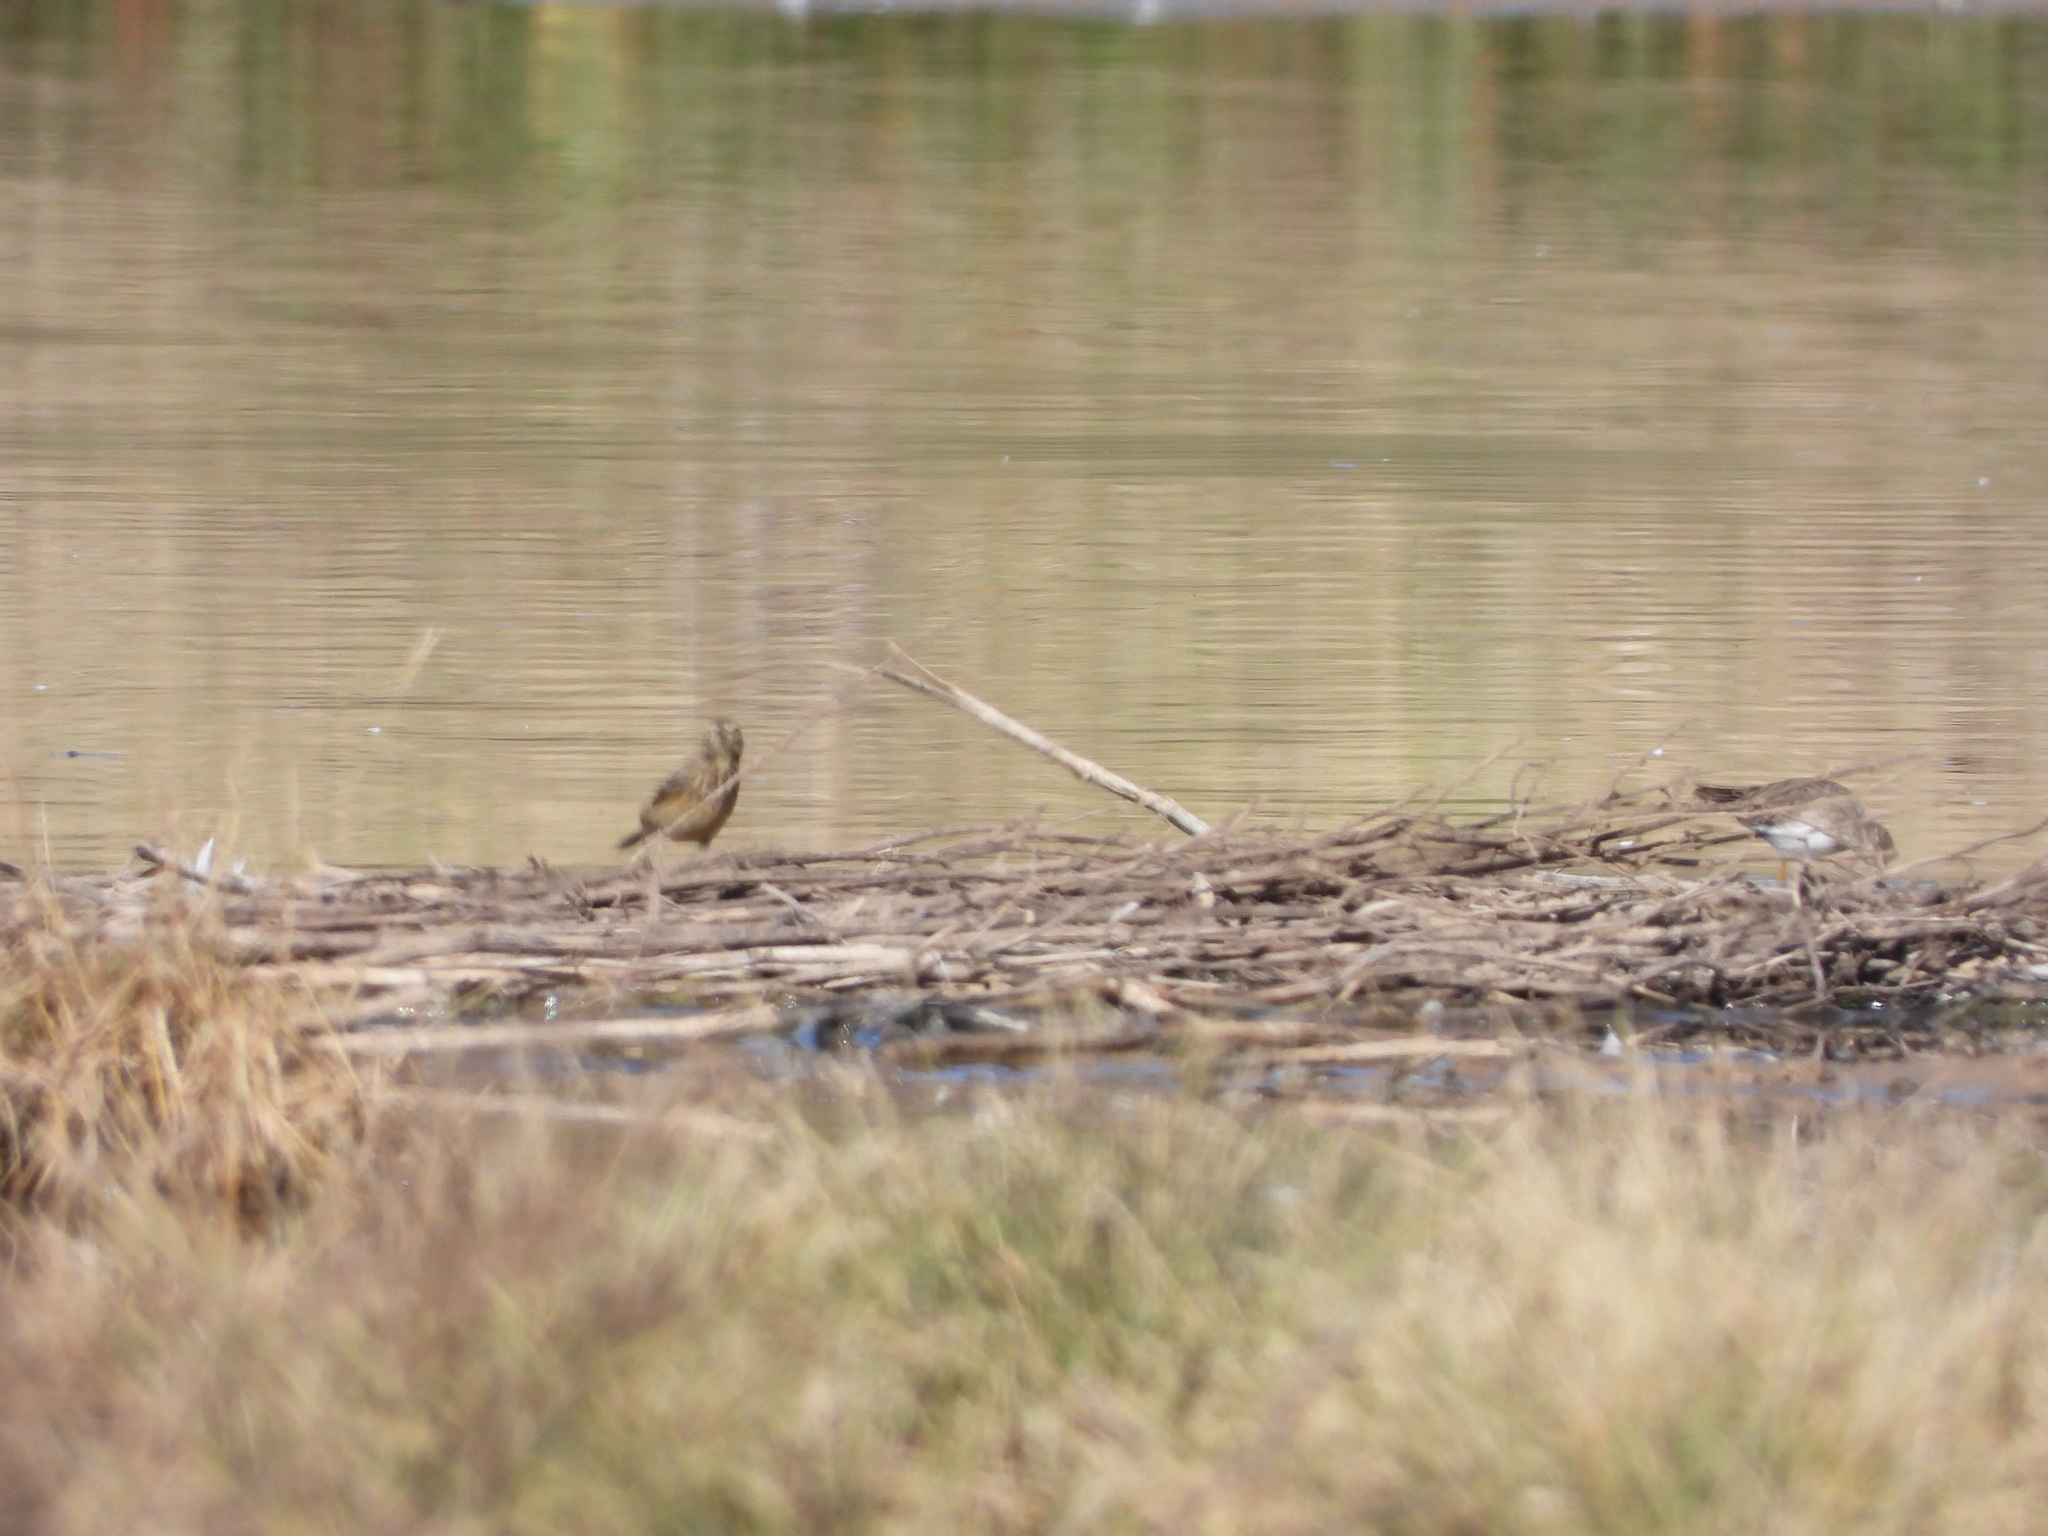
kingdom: Animalia
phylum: Chordata
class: Aves
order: Passeriformes
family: Motacillidae
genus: Anthus
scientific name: Anthus rubescens
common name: Buff-bellied pipit
